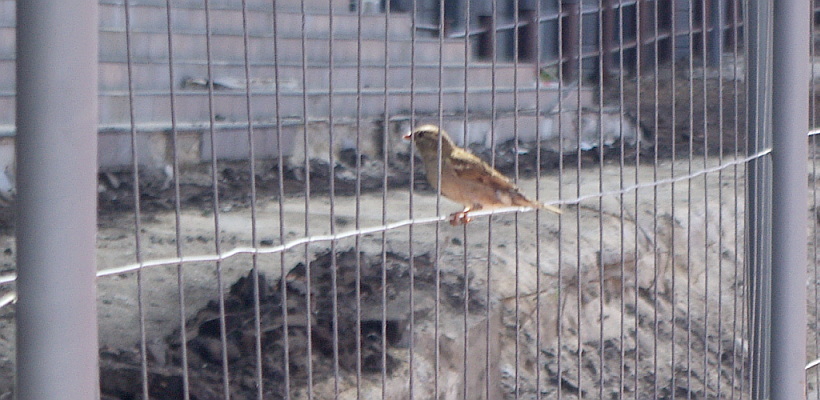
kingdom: Animalia
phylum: Chordata
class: Aves
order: Passeriformes
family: Passeridae
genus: Passer
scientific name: Passer domesticus
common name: House sparrow
